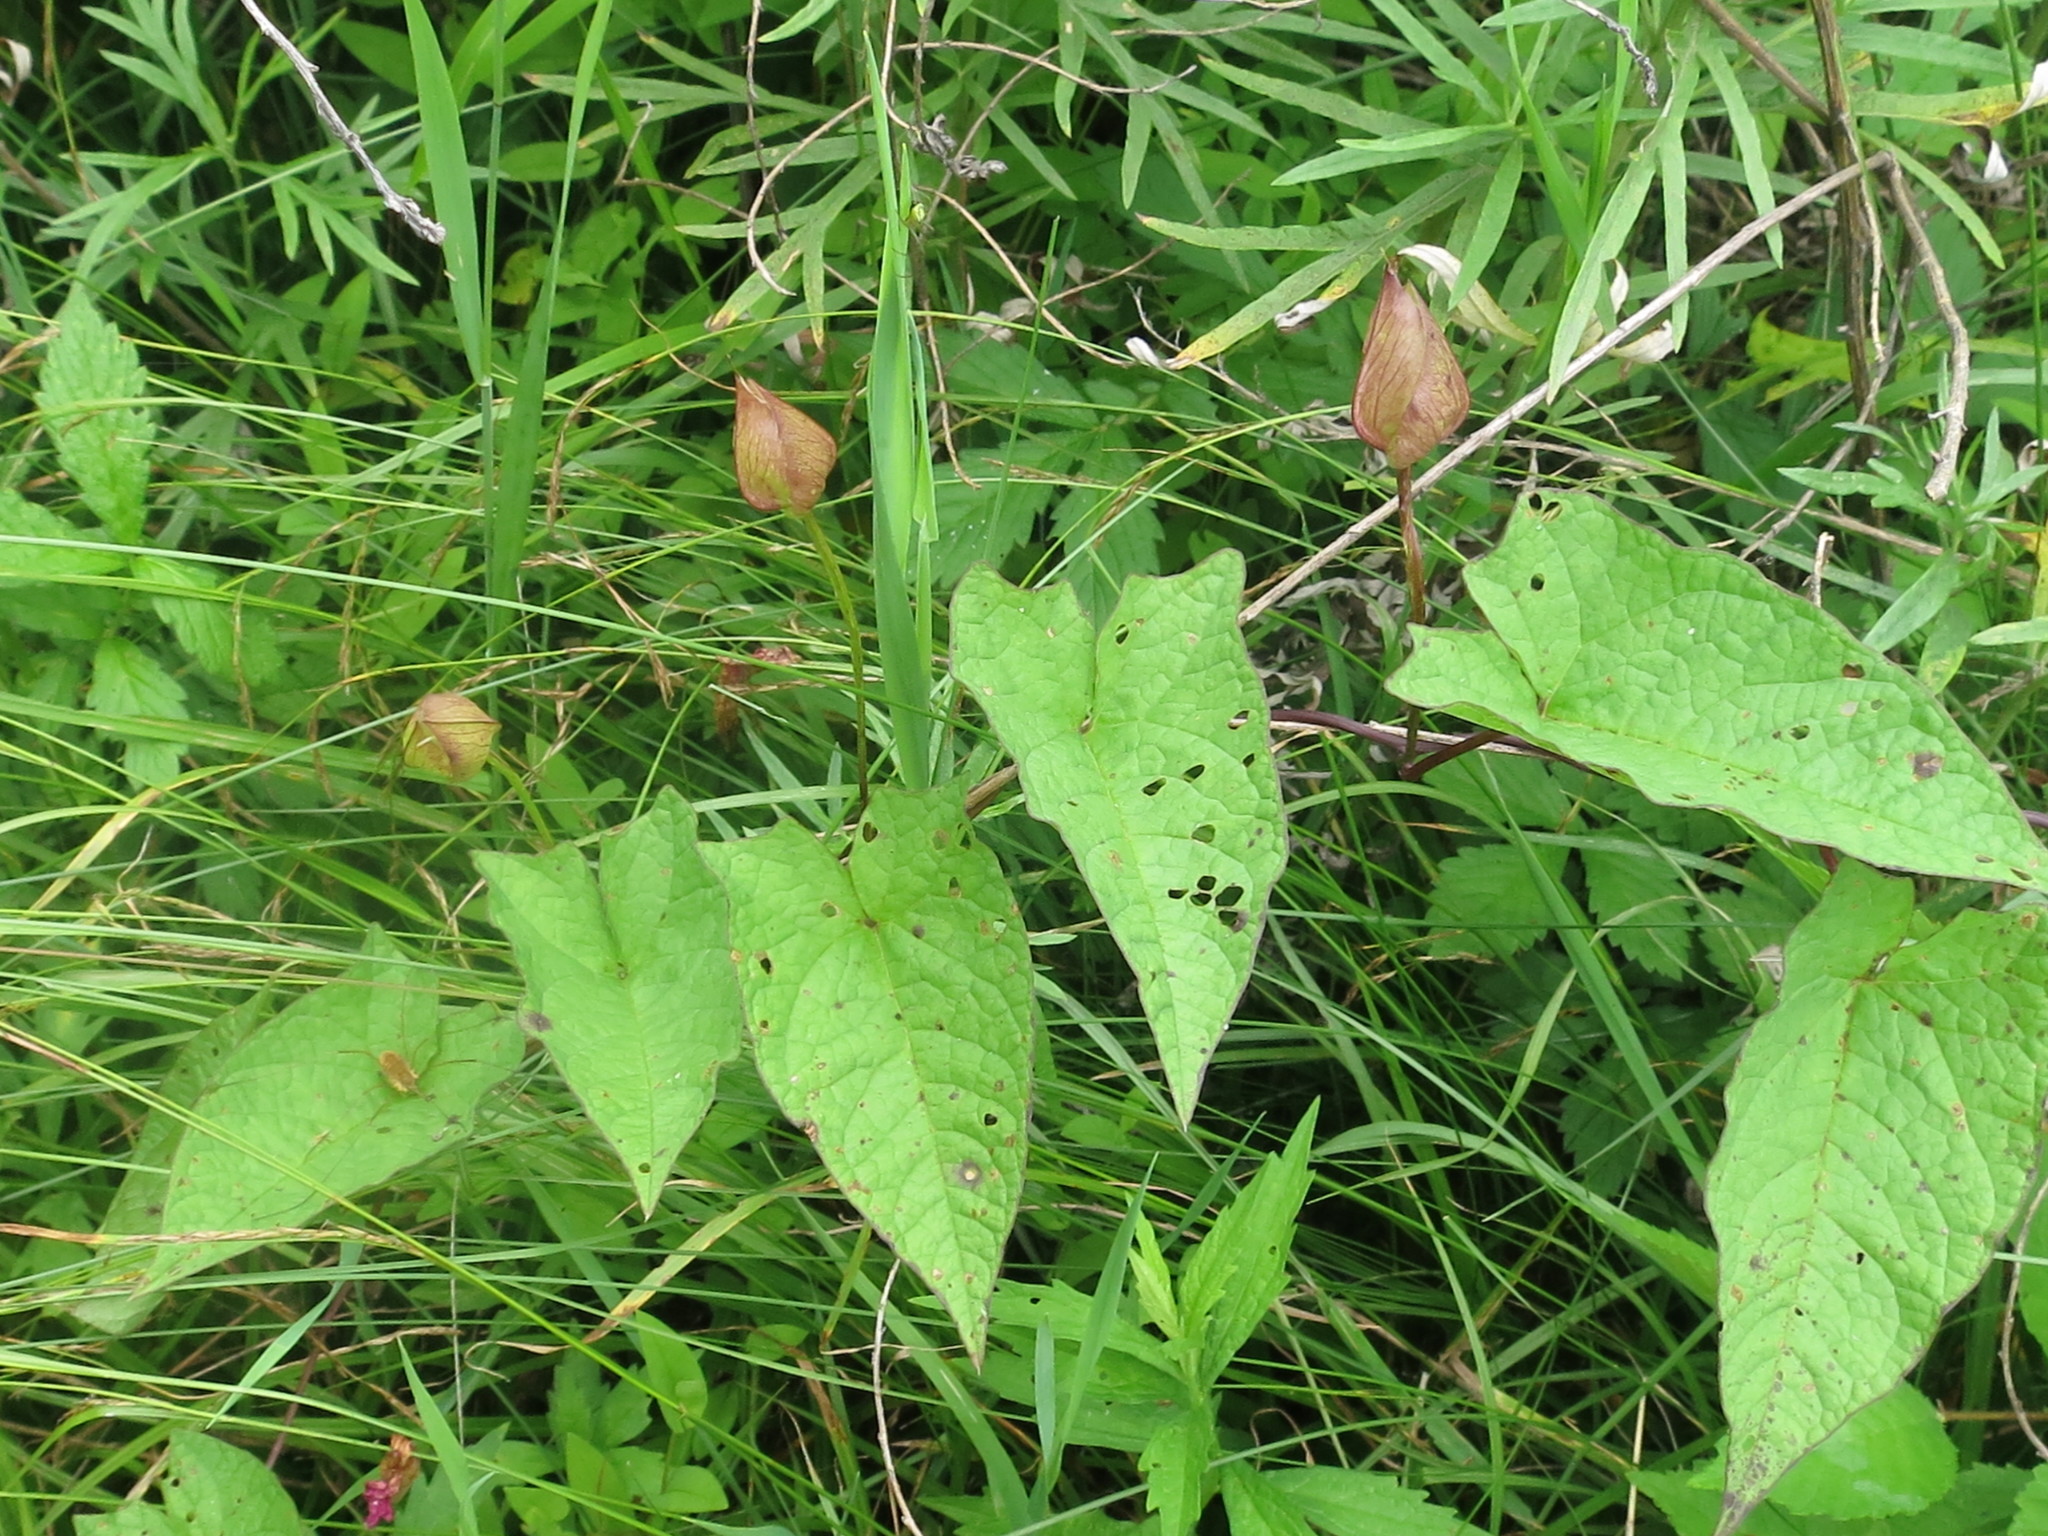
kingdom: Plantae
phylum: Tracheophyta
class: Magnoliopsida
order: Solanales
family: Convolvulaceae
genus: Calystegia
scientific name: Calystegia sepium
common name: Hedge bindweed
